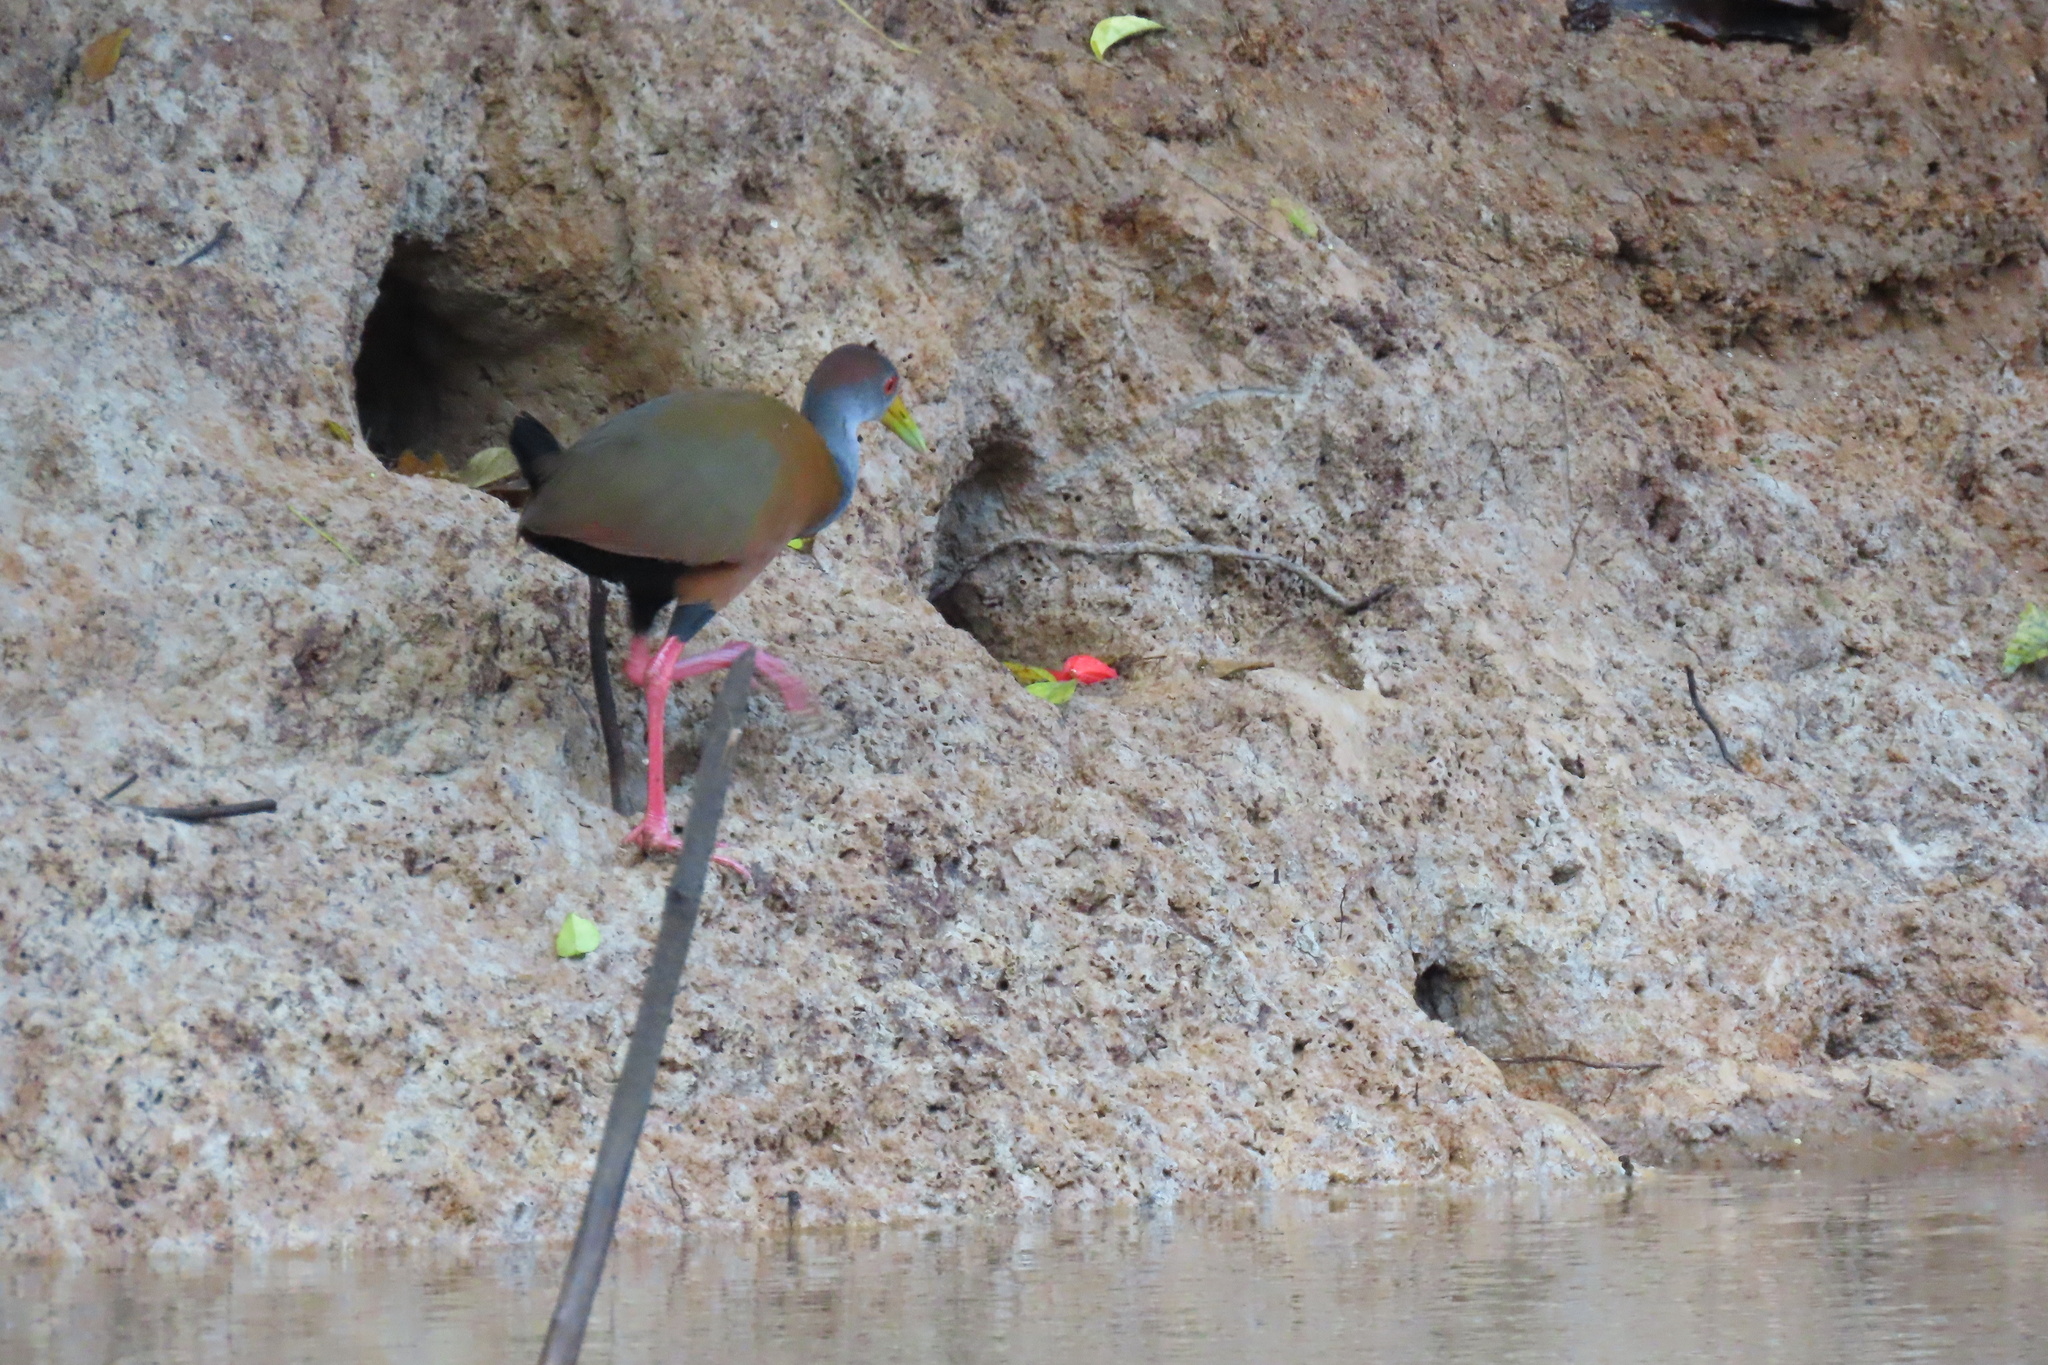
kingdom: Animalia
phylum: Chordata
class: Aves
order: Gruiformes
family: Rallidae
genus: Aramides
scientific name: Aramides albiventris
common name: Russet-naped wood-rail
